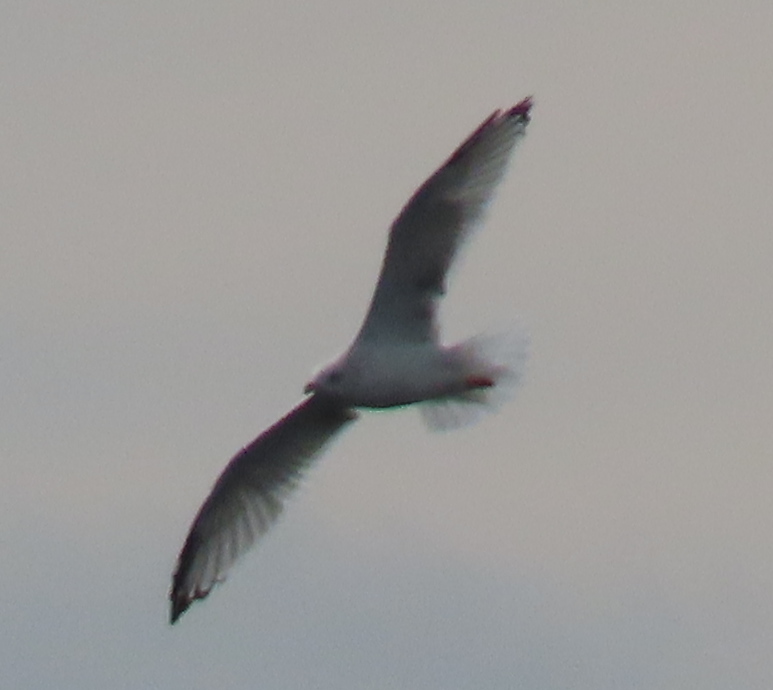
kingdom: Animalia
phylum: Chordata
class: Aves
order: Charadriiformes
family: Laridae
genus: Larus
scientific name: Larus delawarensis
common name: Ring-billed gull
